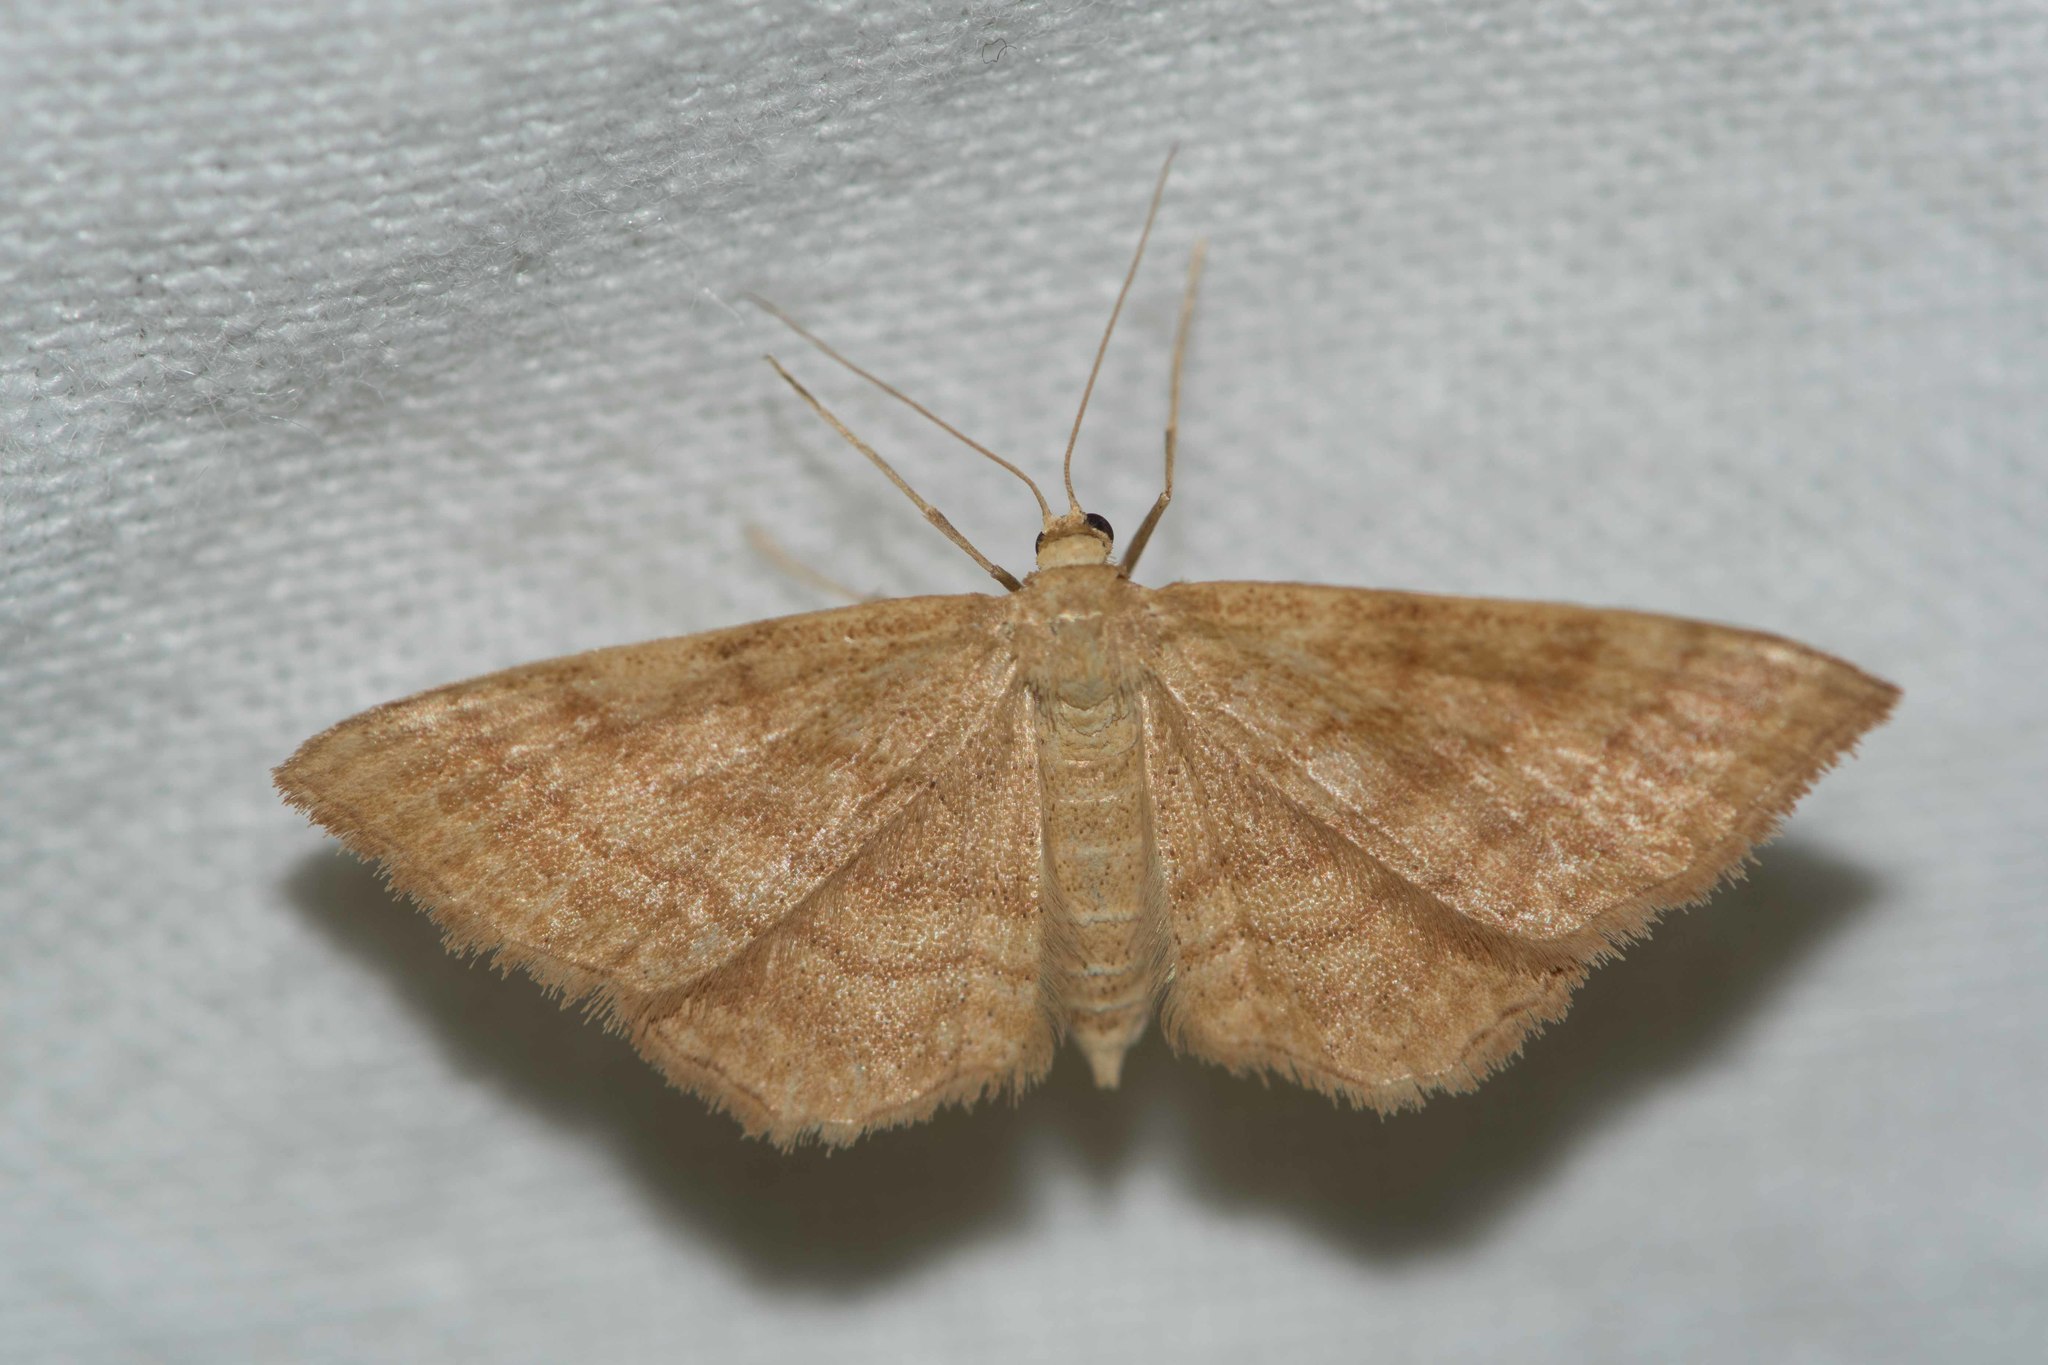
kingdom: Animalia
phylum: Arthropoda
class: Insecta
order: Lepidoptera
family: Geometridae
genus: Idaea
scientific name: Idaea ochrata
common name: Bright wave
